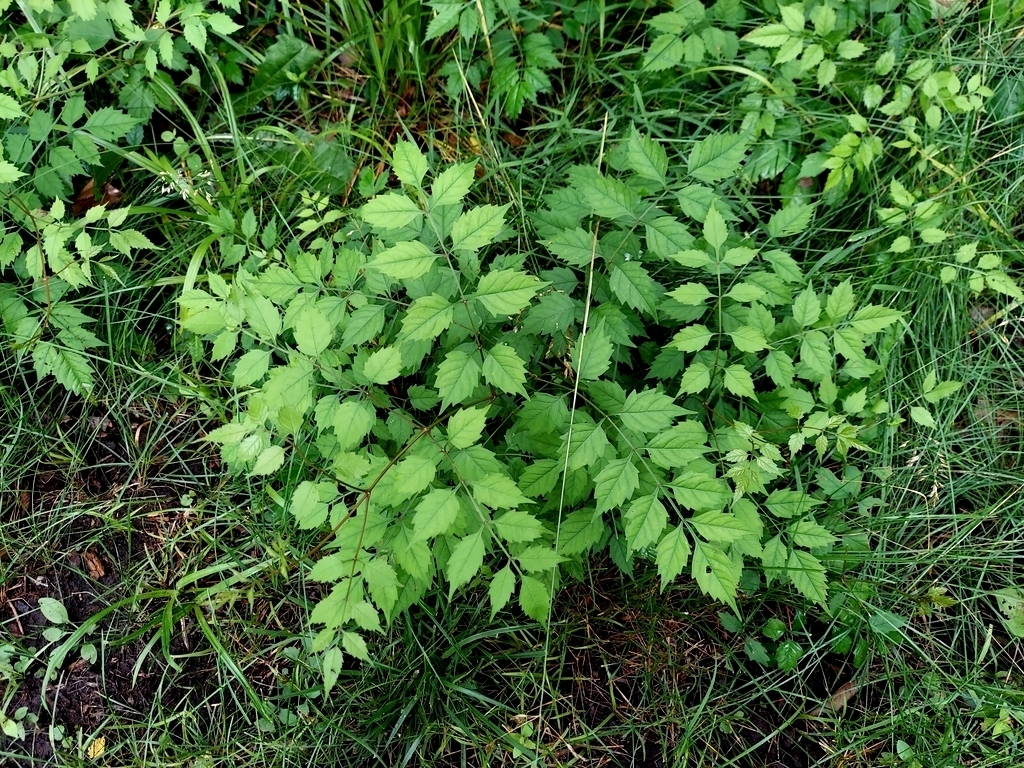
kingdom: Plantae
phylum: Tracheophyta
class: Magnoliopsida
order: Lamiales
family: Bignoniaceae
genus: Campsis
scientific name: Campsis radicans
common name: Trumpet-creeper
